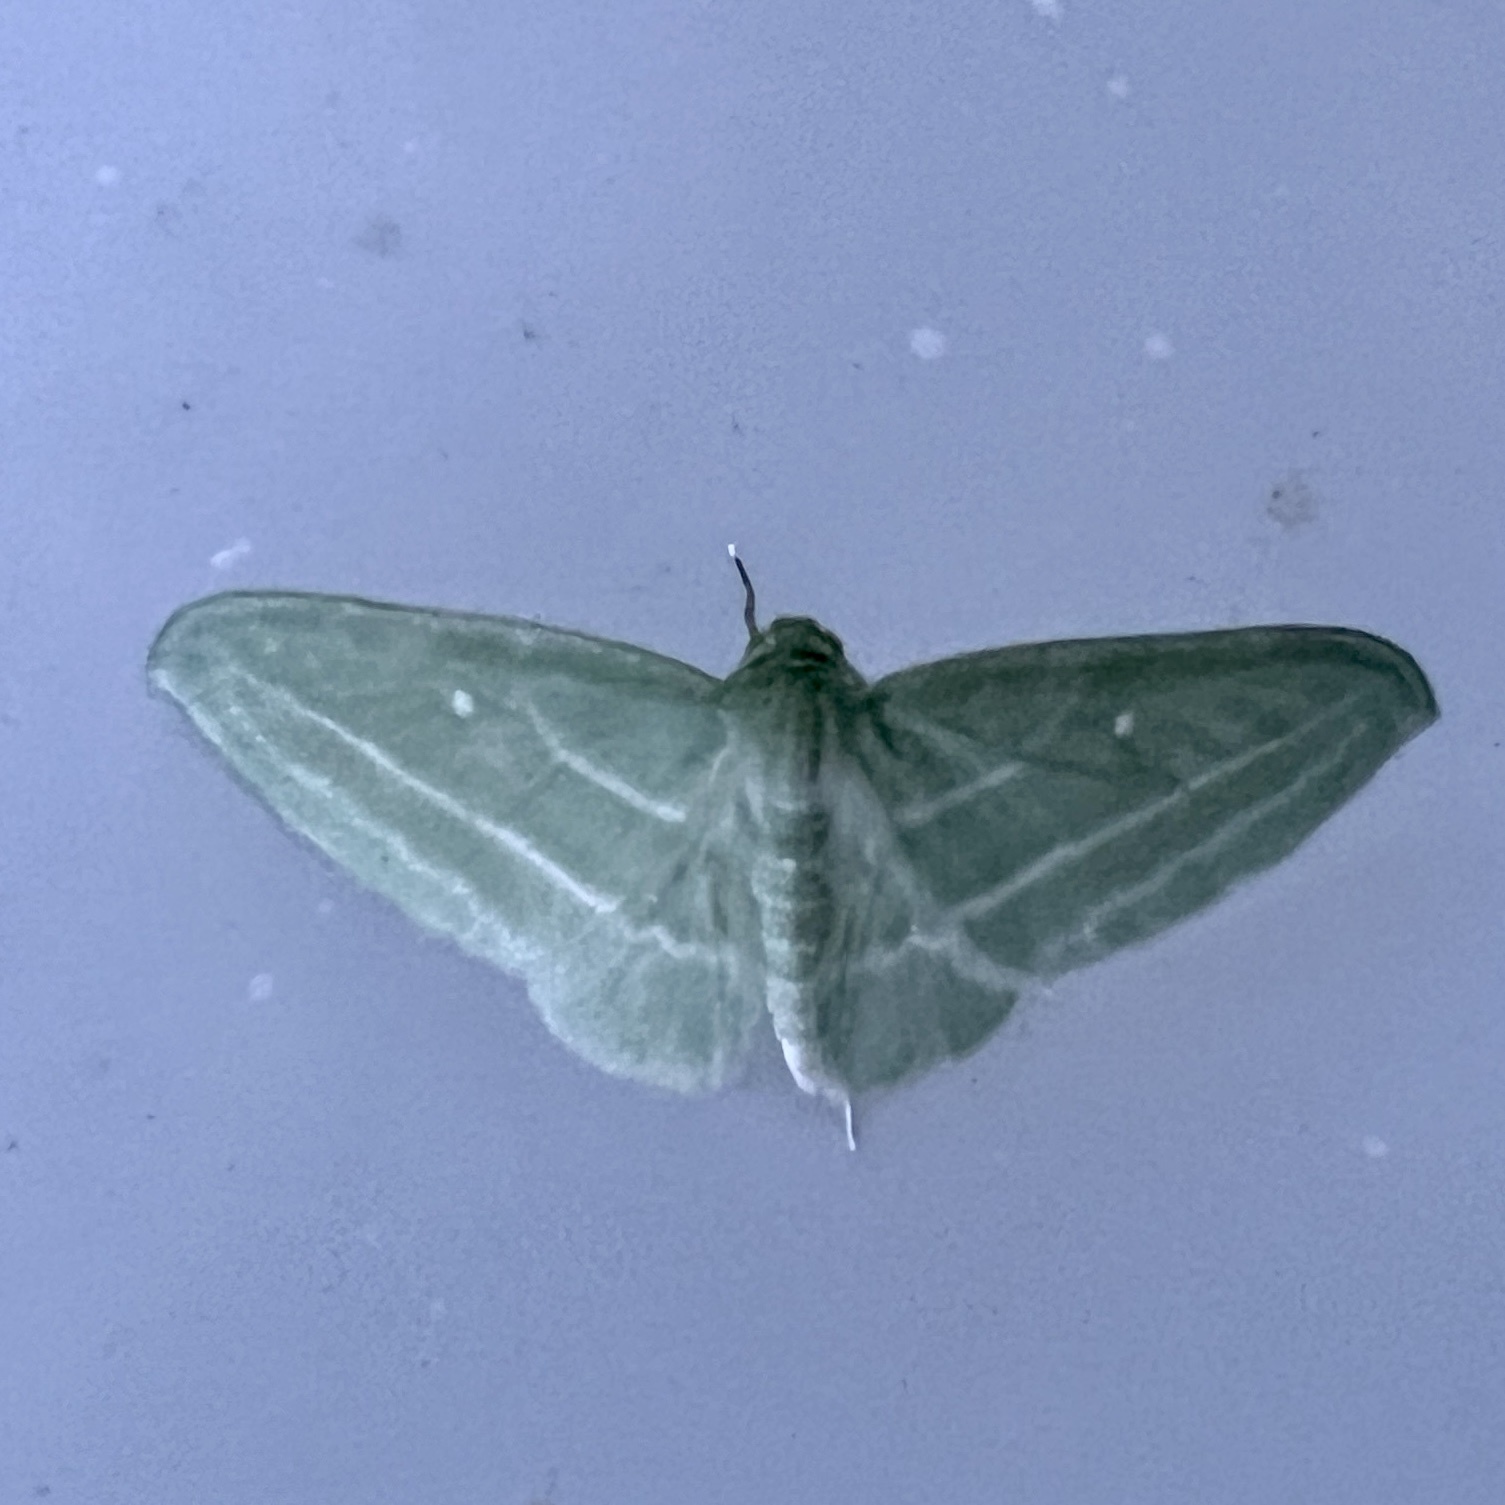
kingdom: Animalia
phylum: Arthropoda
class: Insecta
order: Lepidoptera
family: Geometridae
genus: Dyspteris
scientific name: Dyspteris abortivaria
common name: Bad-wing
